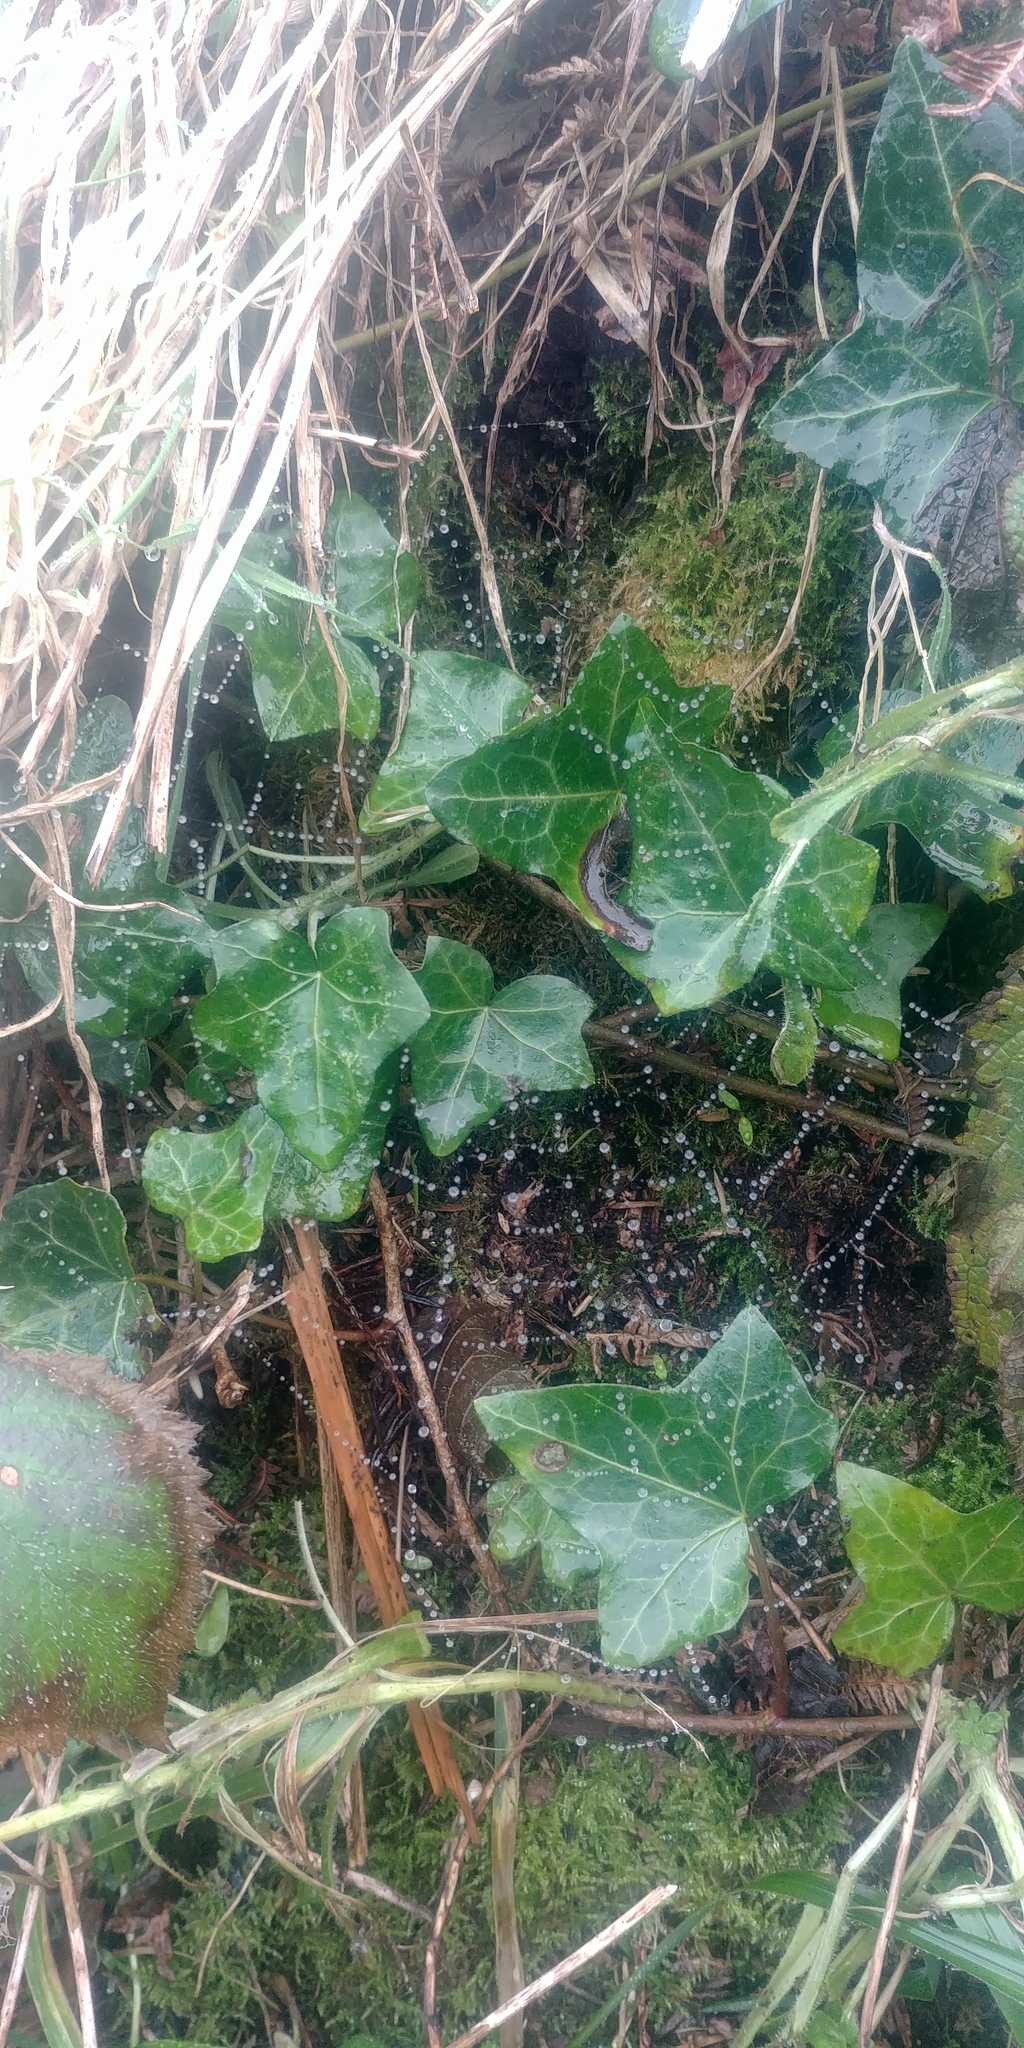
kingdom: Plantae
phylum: Tracheophyta
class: Magnoliopsida
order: Apiales
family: Araliaceae
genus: Hedera
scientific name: Hedera helix
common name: Ivy
